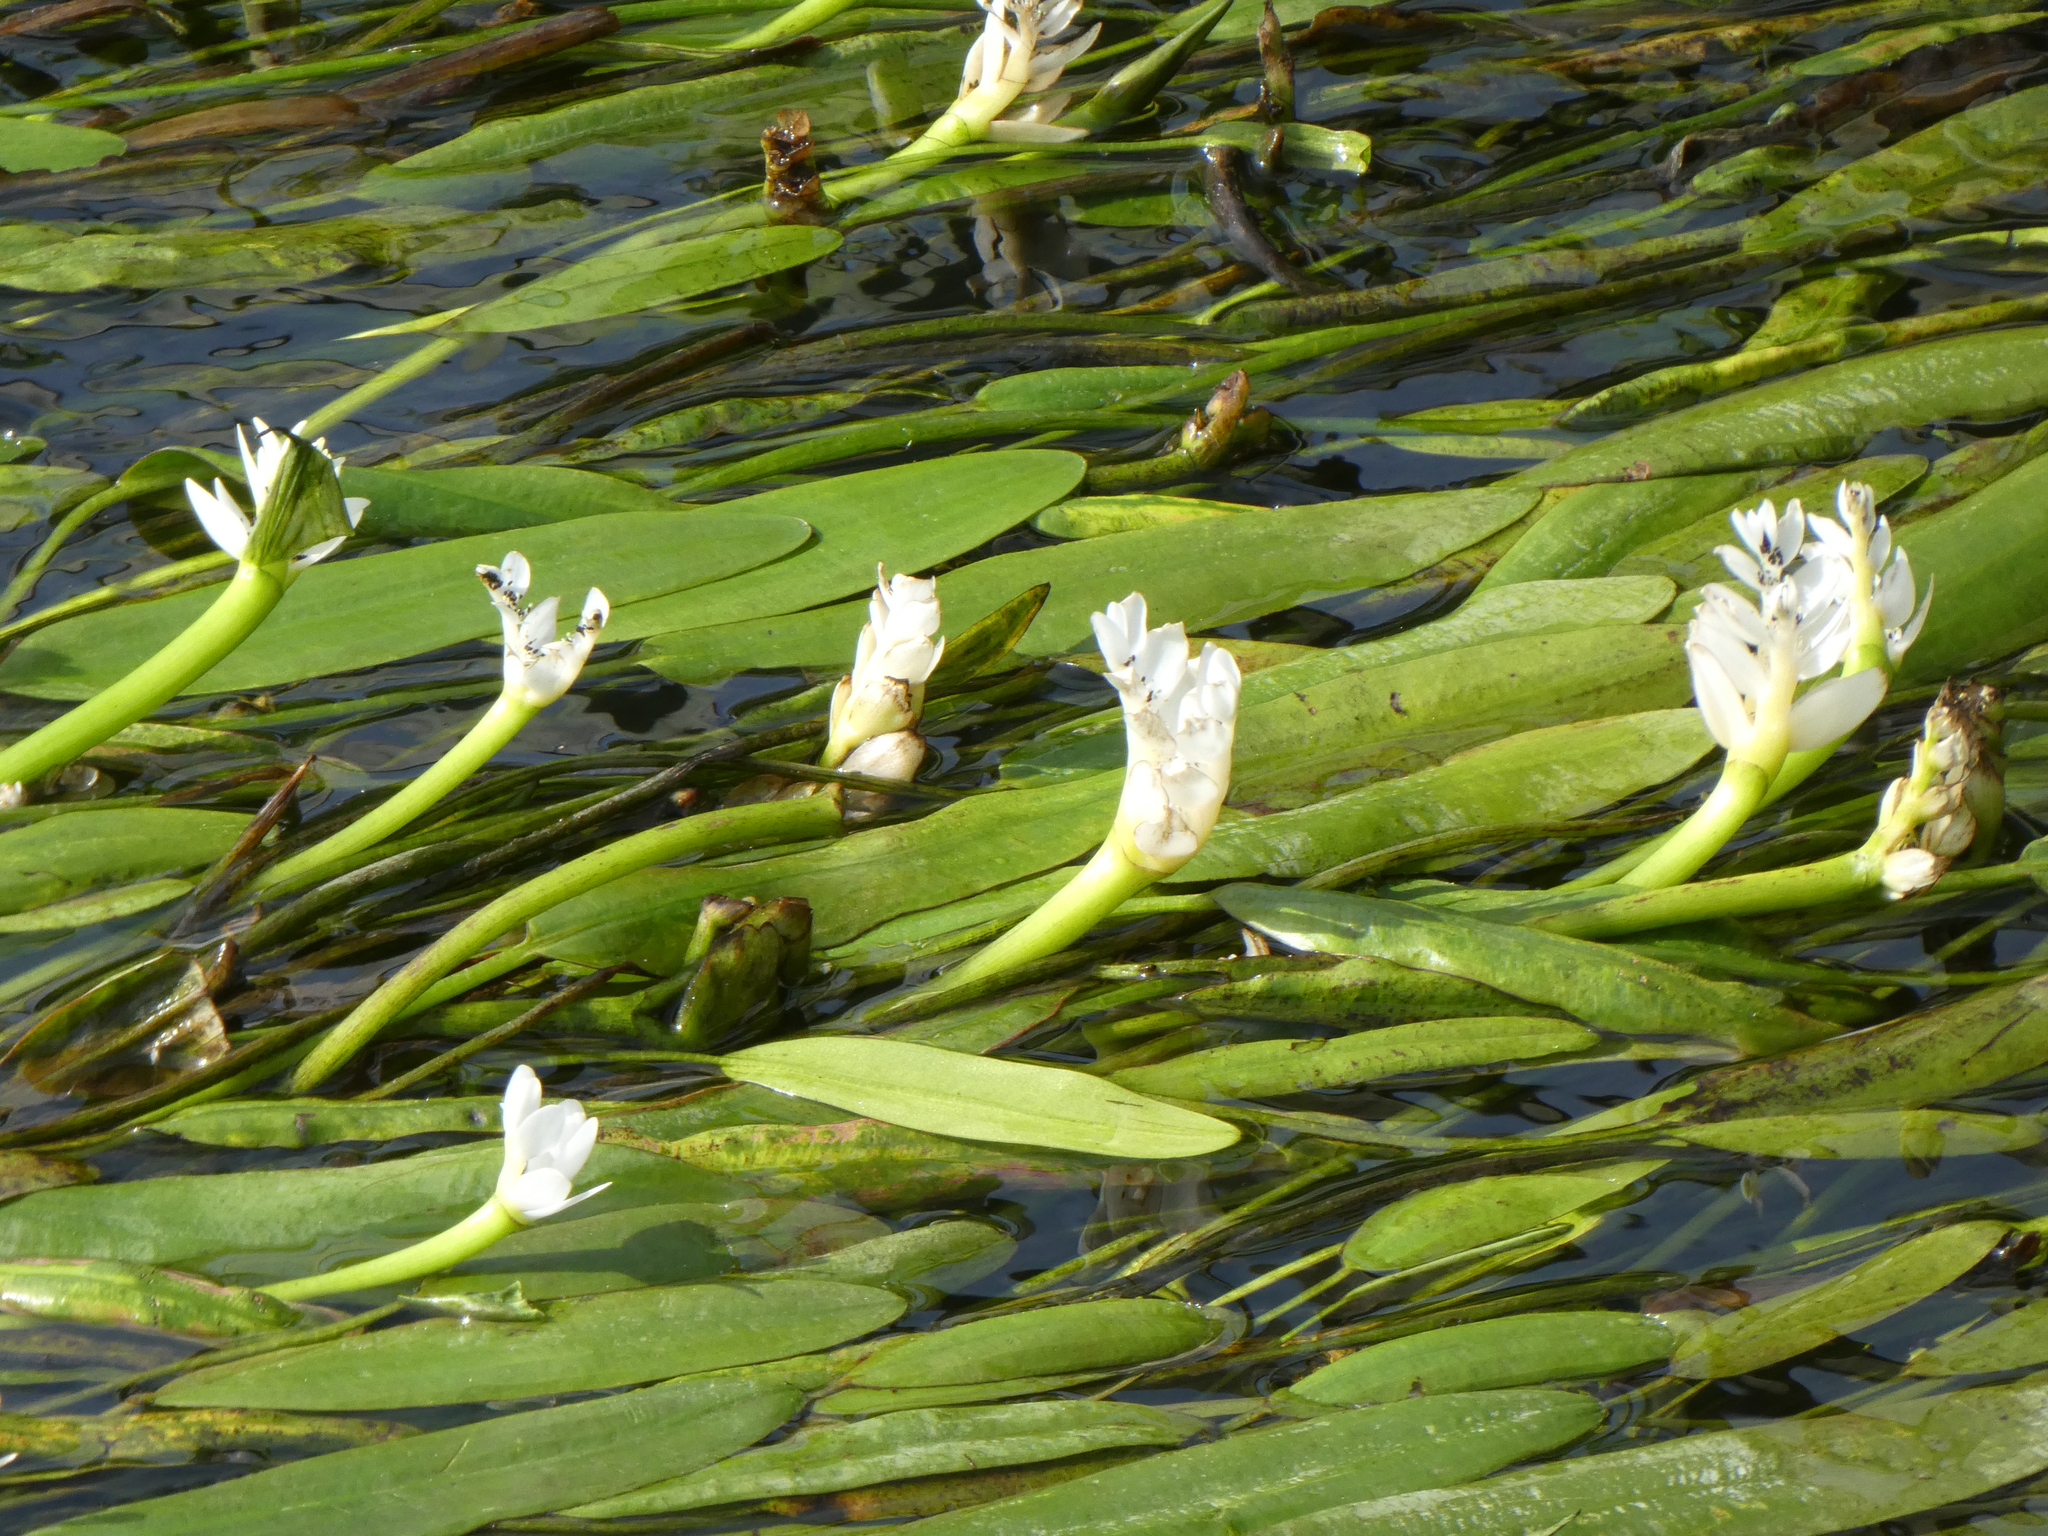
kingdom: Plantae
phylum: Tracheophyta
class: Liliopsida
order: Alismatales
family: Aponogetonaceae
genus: Aponogeton
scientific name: Aponogeton distachyos
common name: Cape-pondweed
